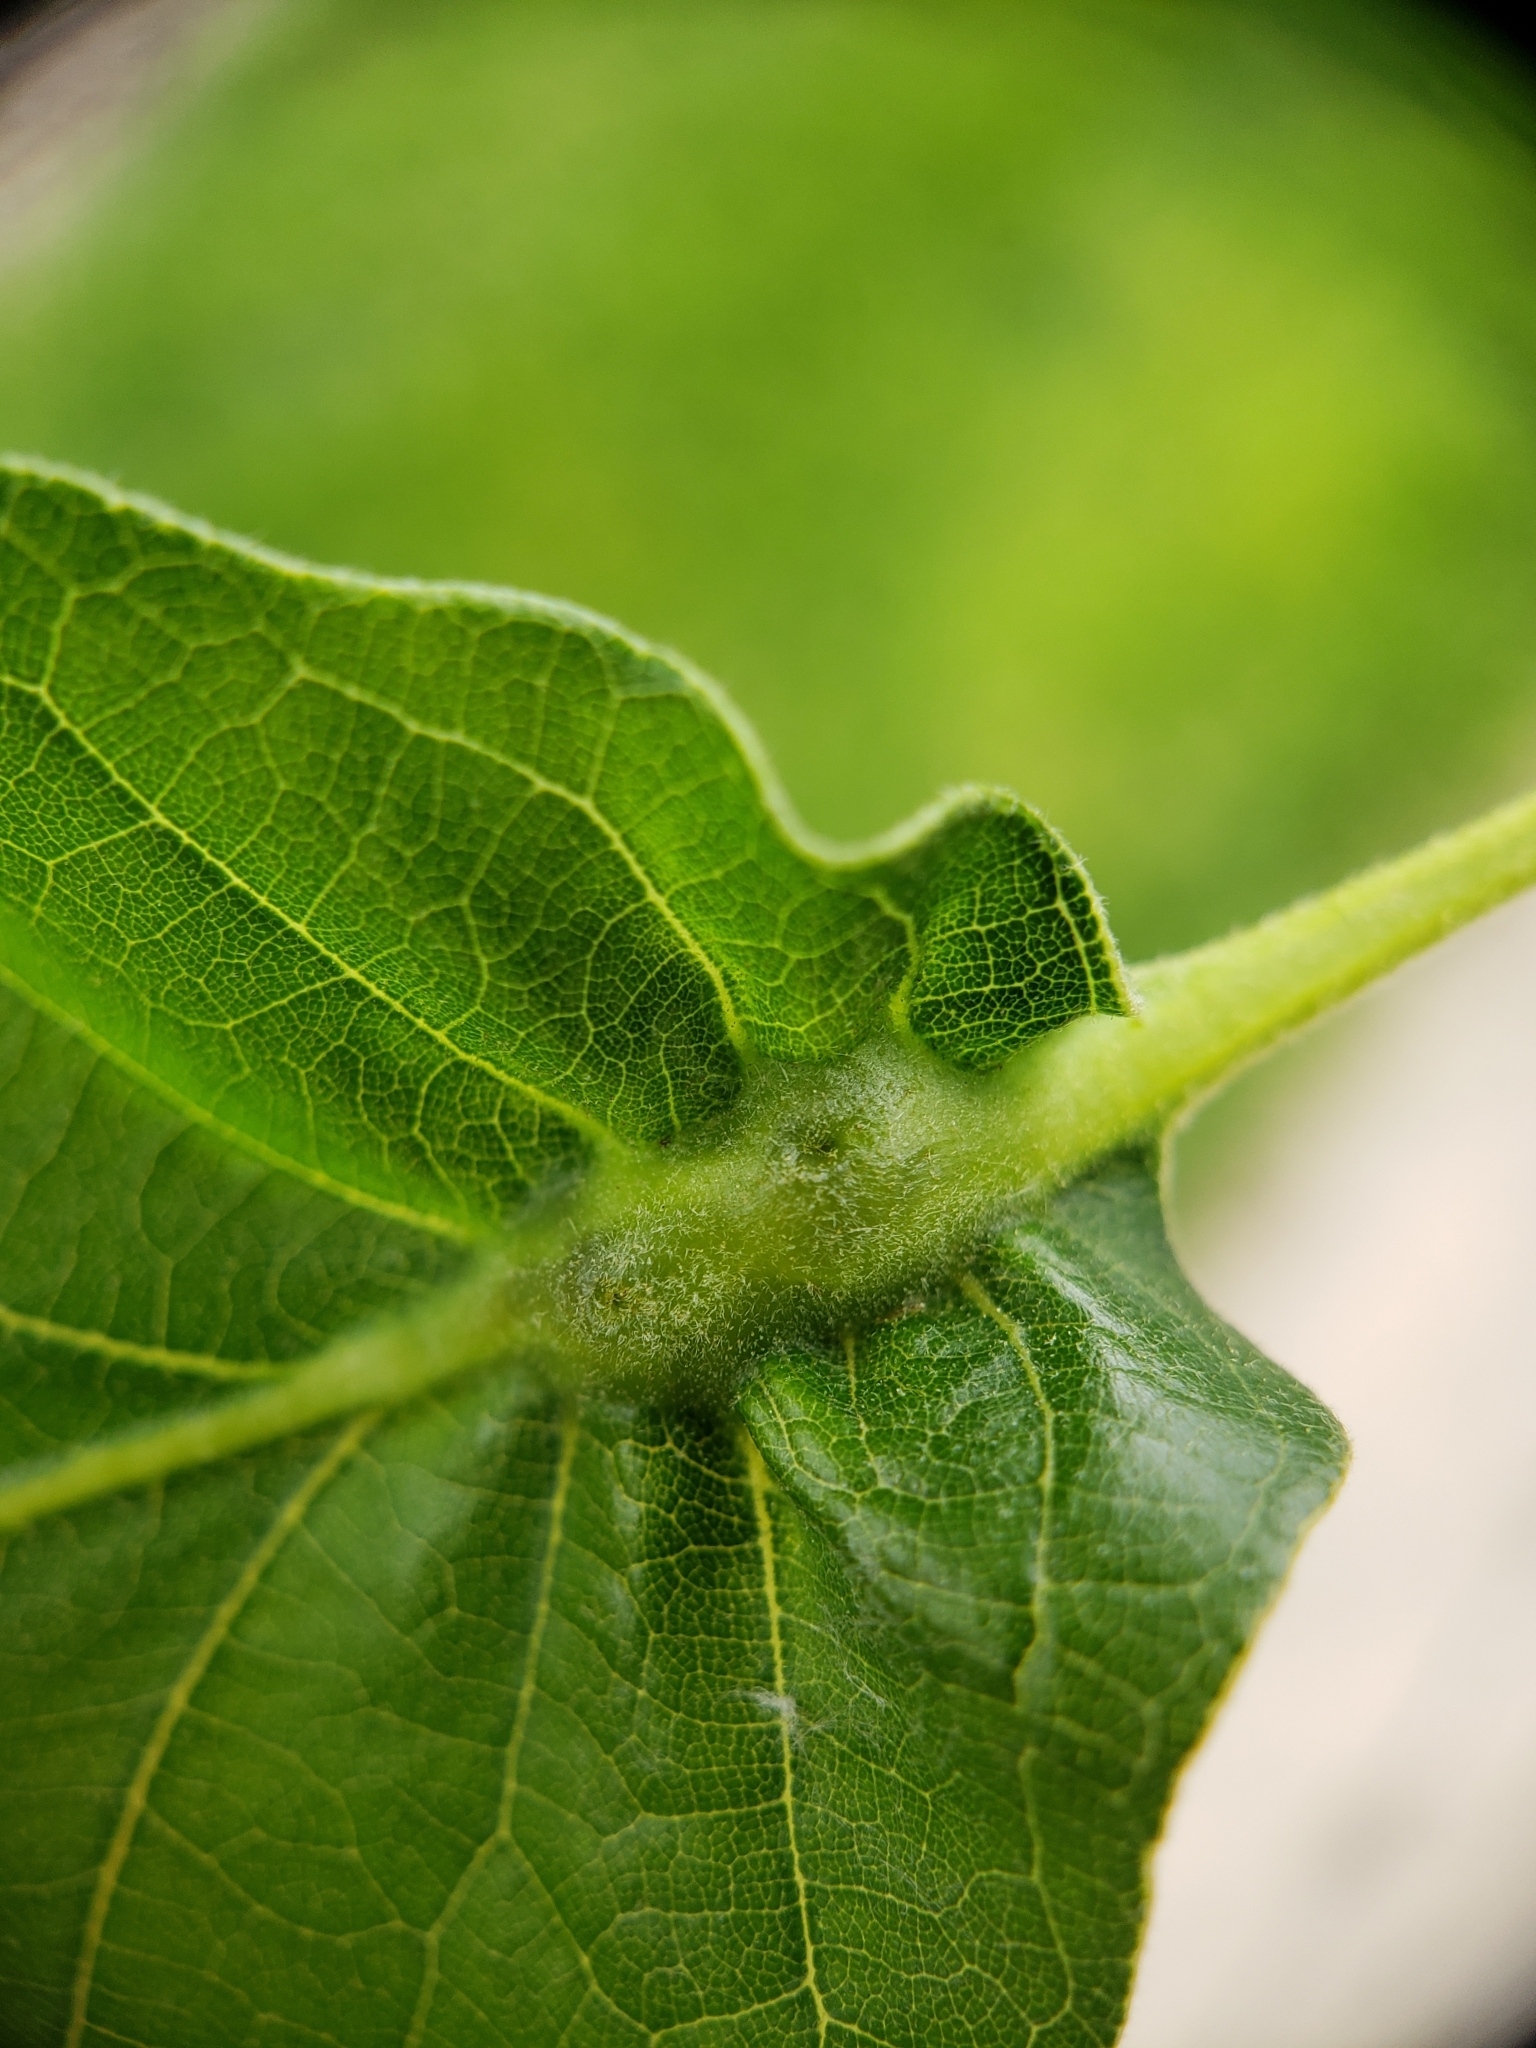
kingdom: Animalia
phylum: Arthropoda
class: Insecta
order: Hymenoptera
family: Cynipidae
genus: Bassettia
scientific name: Bassettia flavipes
